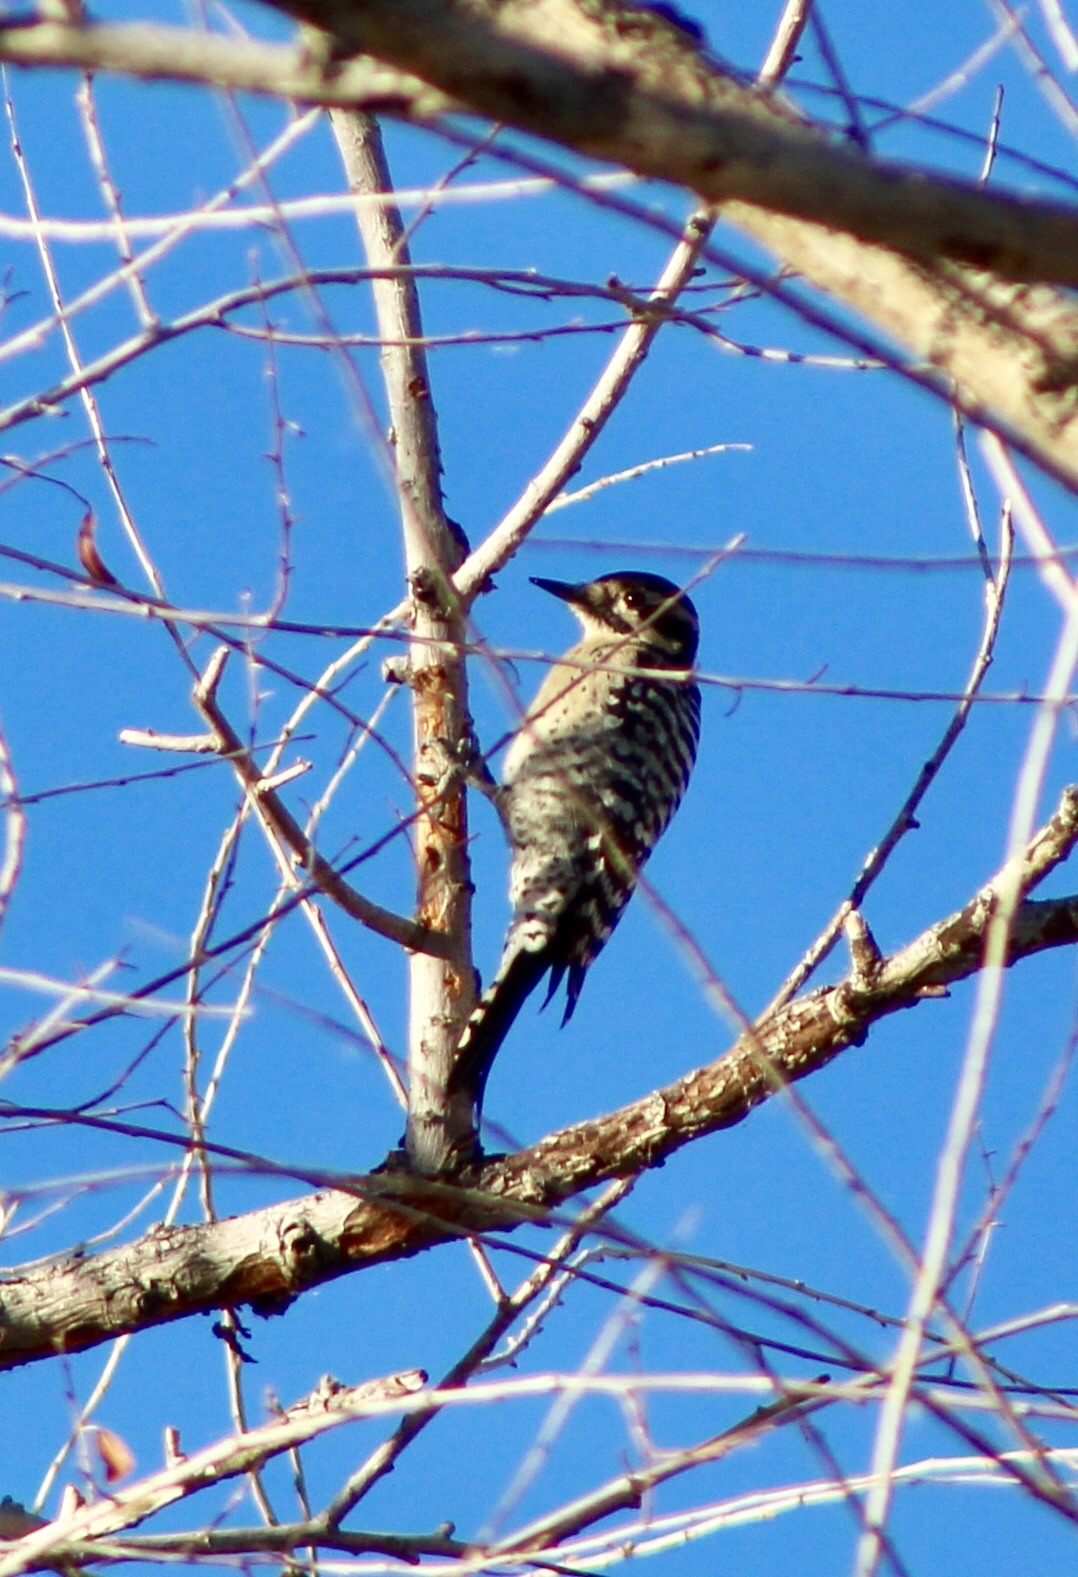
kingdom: Animalia
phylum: Chordata
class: Aves
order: Piciformes
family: Picidae
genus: Dryobates
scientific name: Dryobates scalaris
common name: Ladder-backed woodpecker
